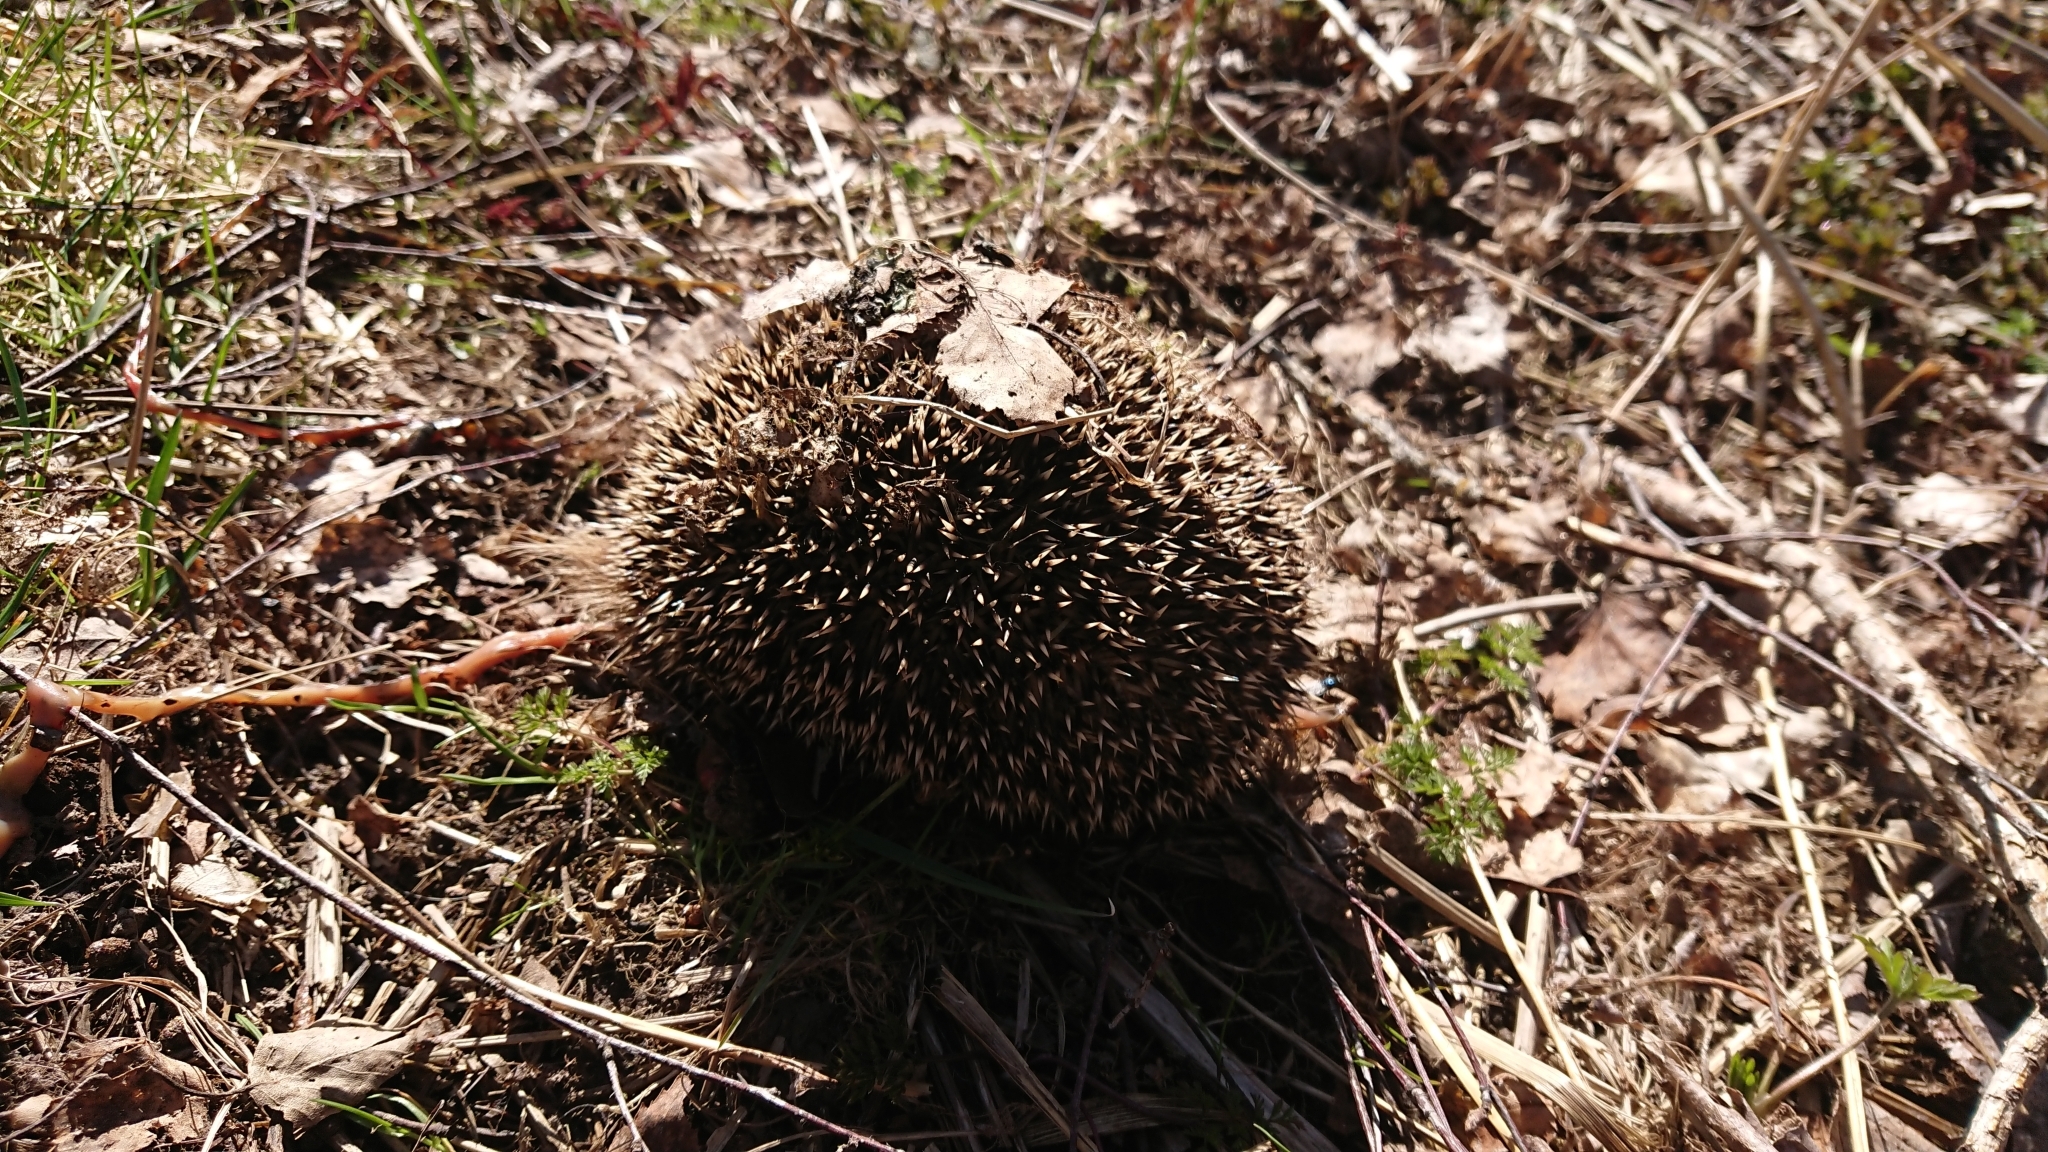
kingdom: Animalia
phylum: Chordata
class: Mammalia
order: Erinaceomorpha
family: Erinaceidae
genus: Erinaceus
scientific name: Erinaceus europaeus
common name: West european hedgehog
